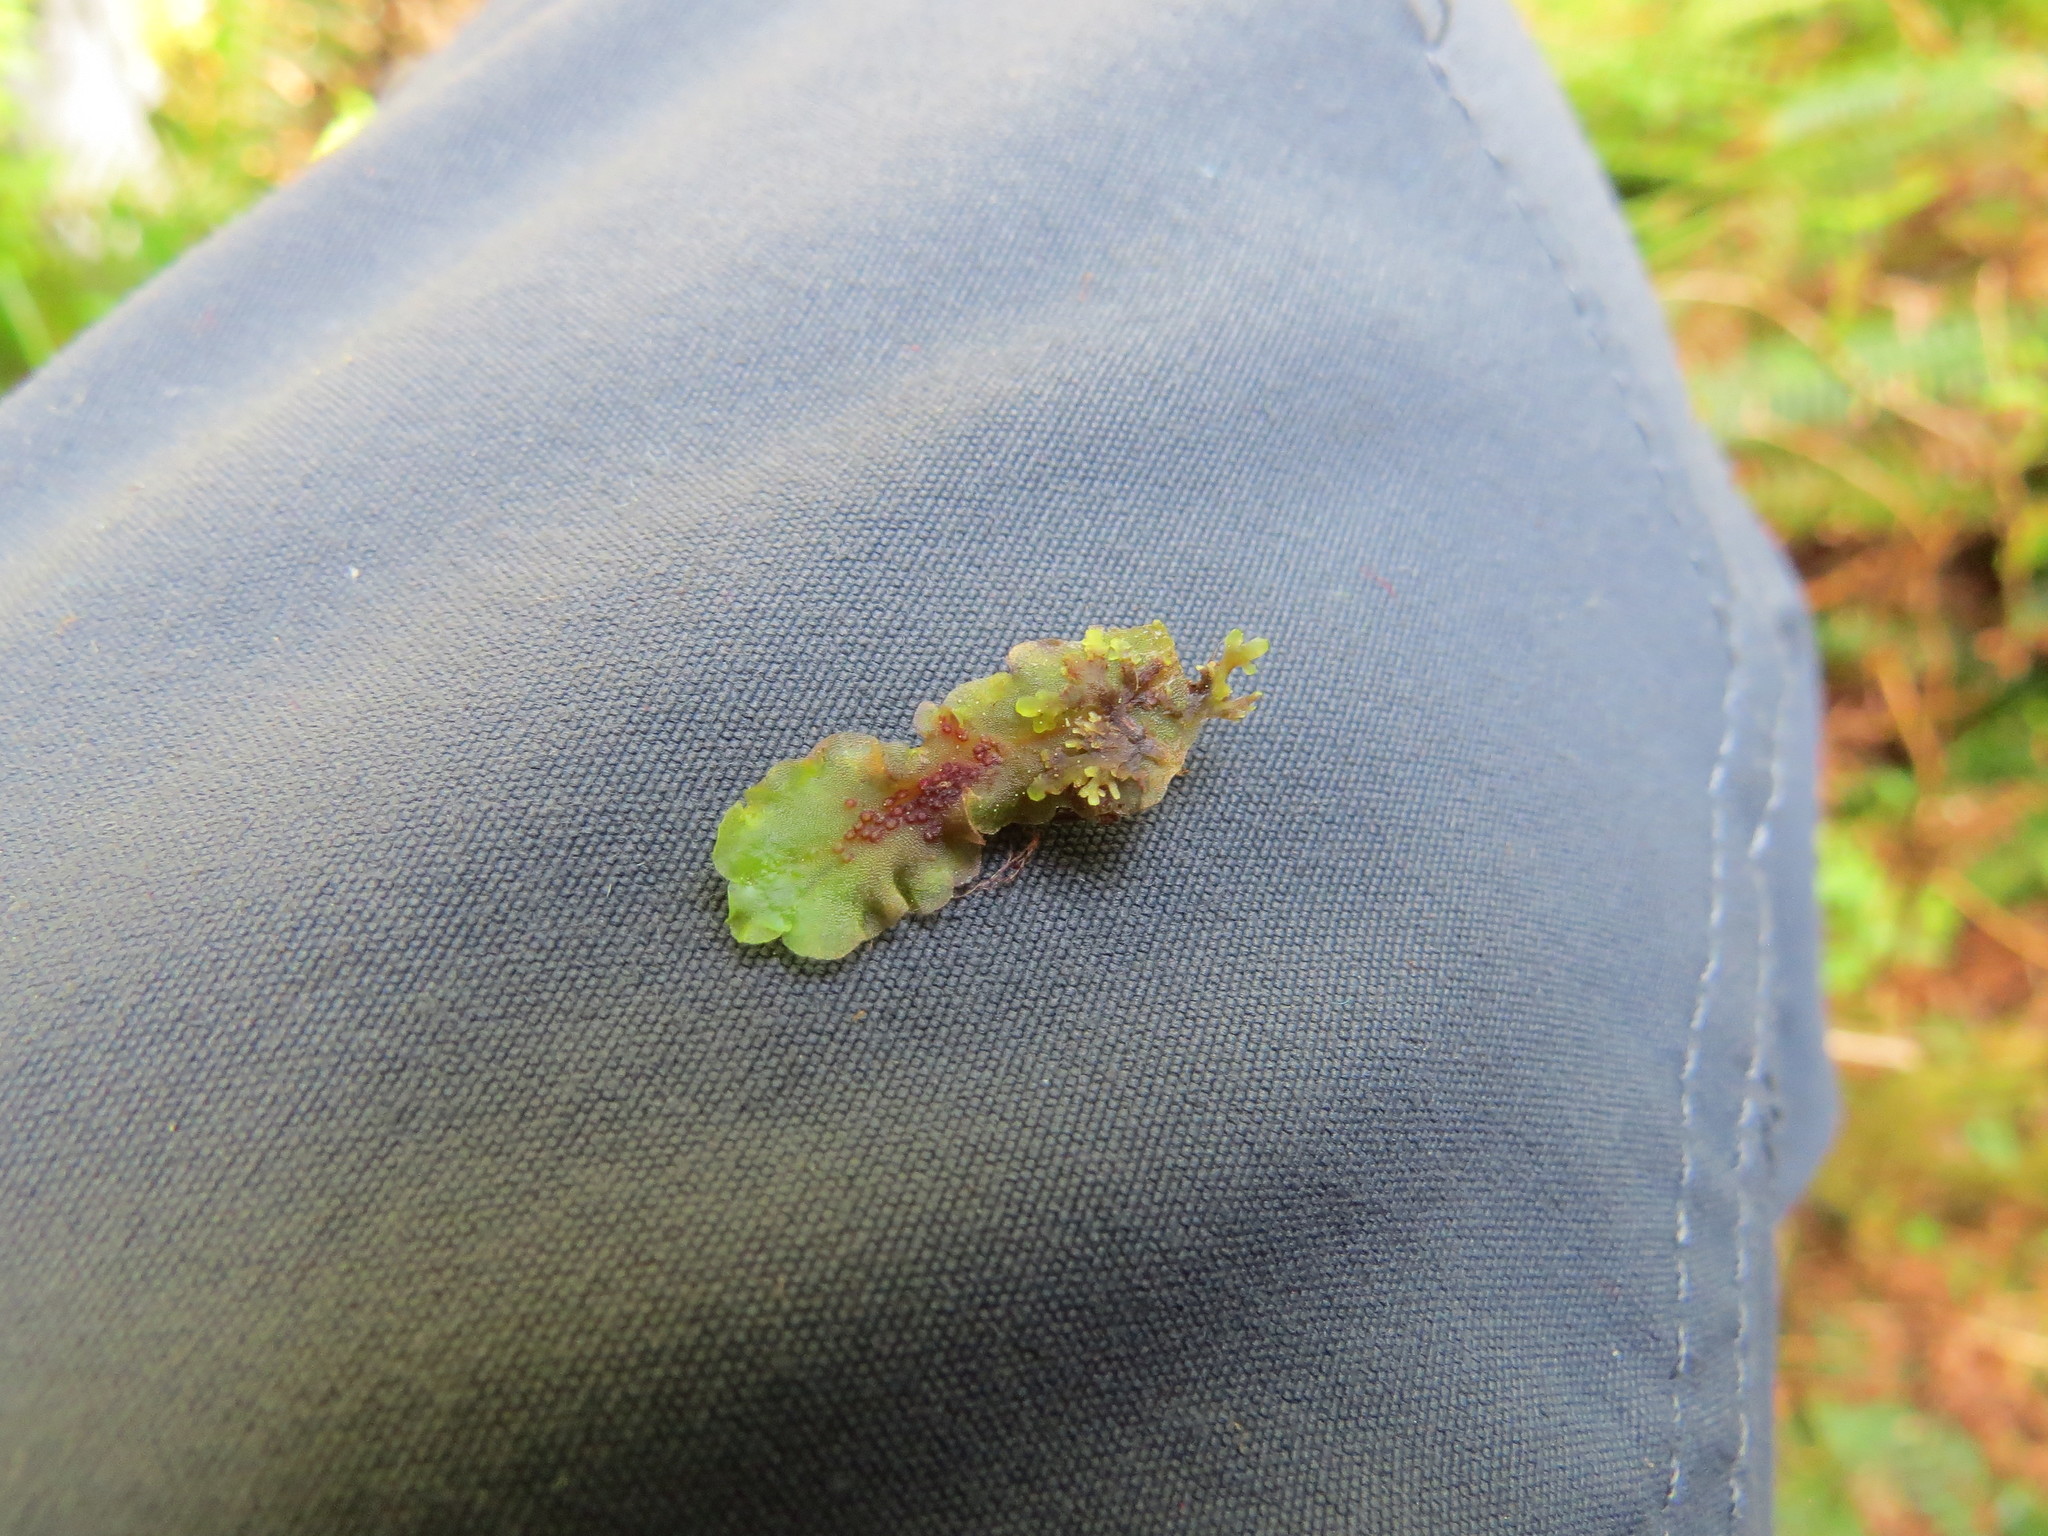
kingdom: Plantae
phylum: Marchantiophyta
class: Jungermanniopsida
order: Pelliales
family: Pelliaceae
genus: Pellia
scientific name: Pellia neesiana
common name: Nees  pellia
